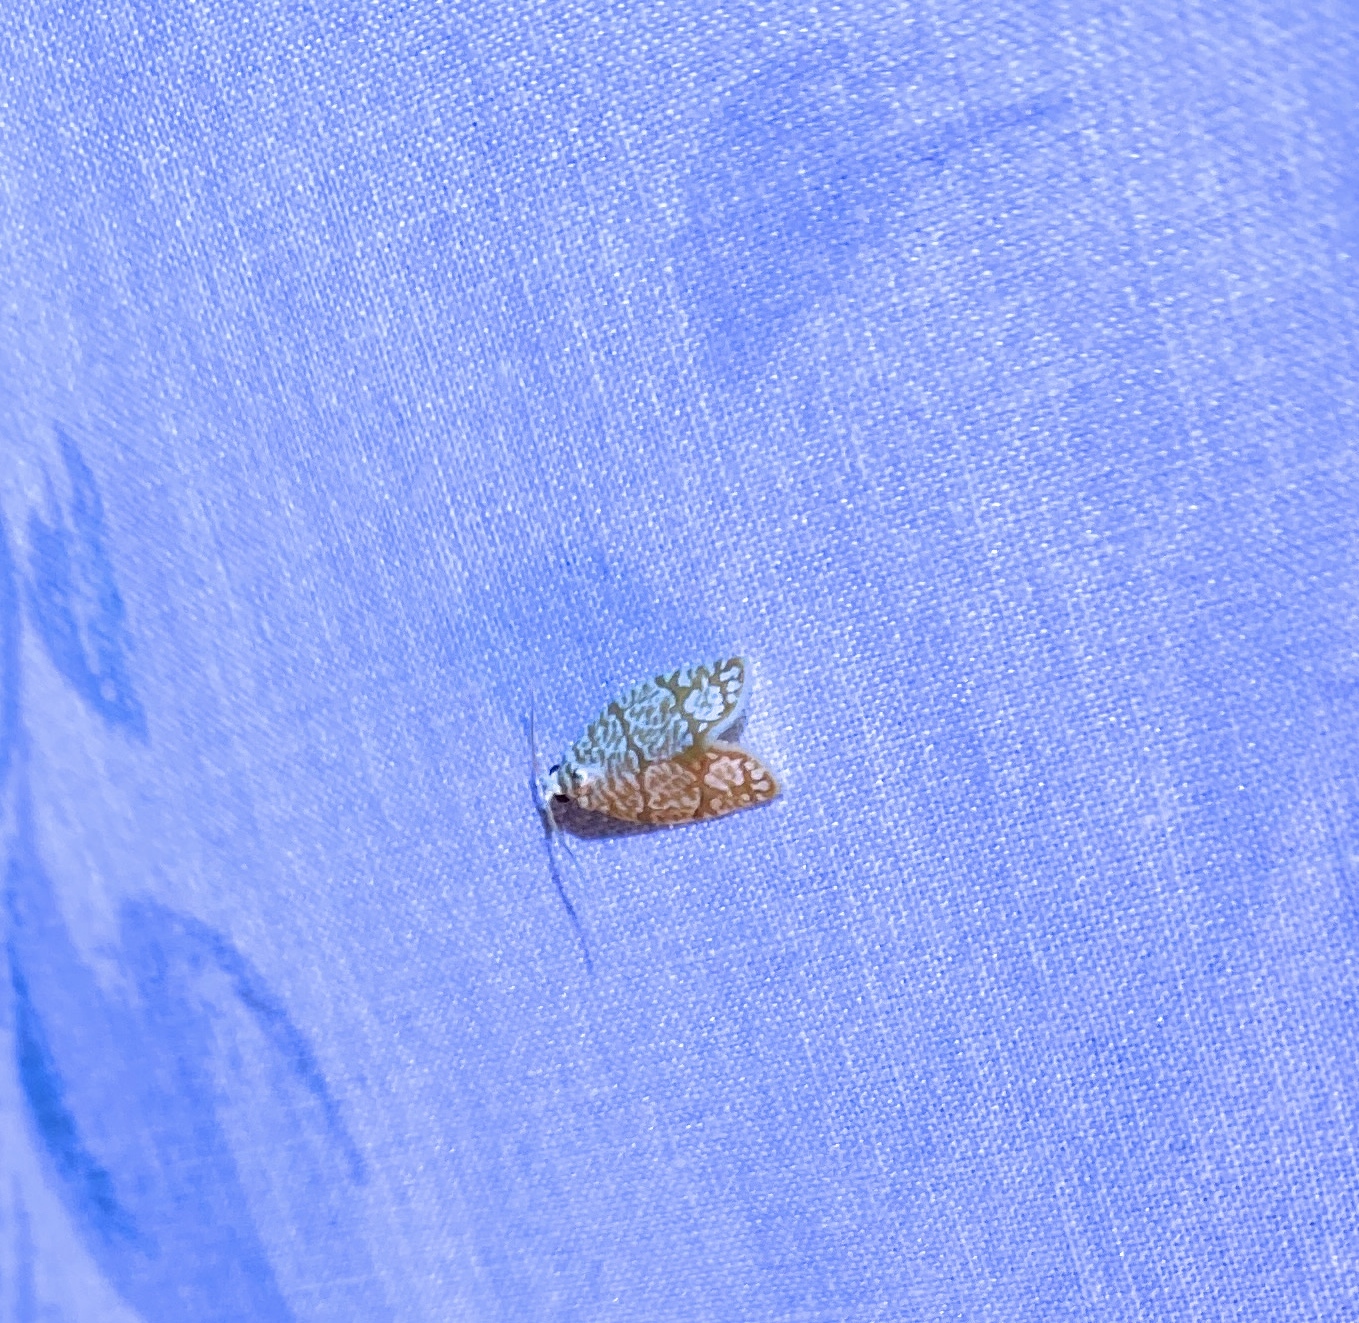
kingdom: Animalia
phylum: Arthropoda
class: Insecta
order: Lepidoptera
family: Tortricidae
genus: Argyrotaenia
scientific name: Argyrotaenia quercifoliana
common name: Yellow-winged oak leafroller moth
